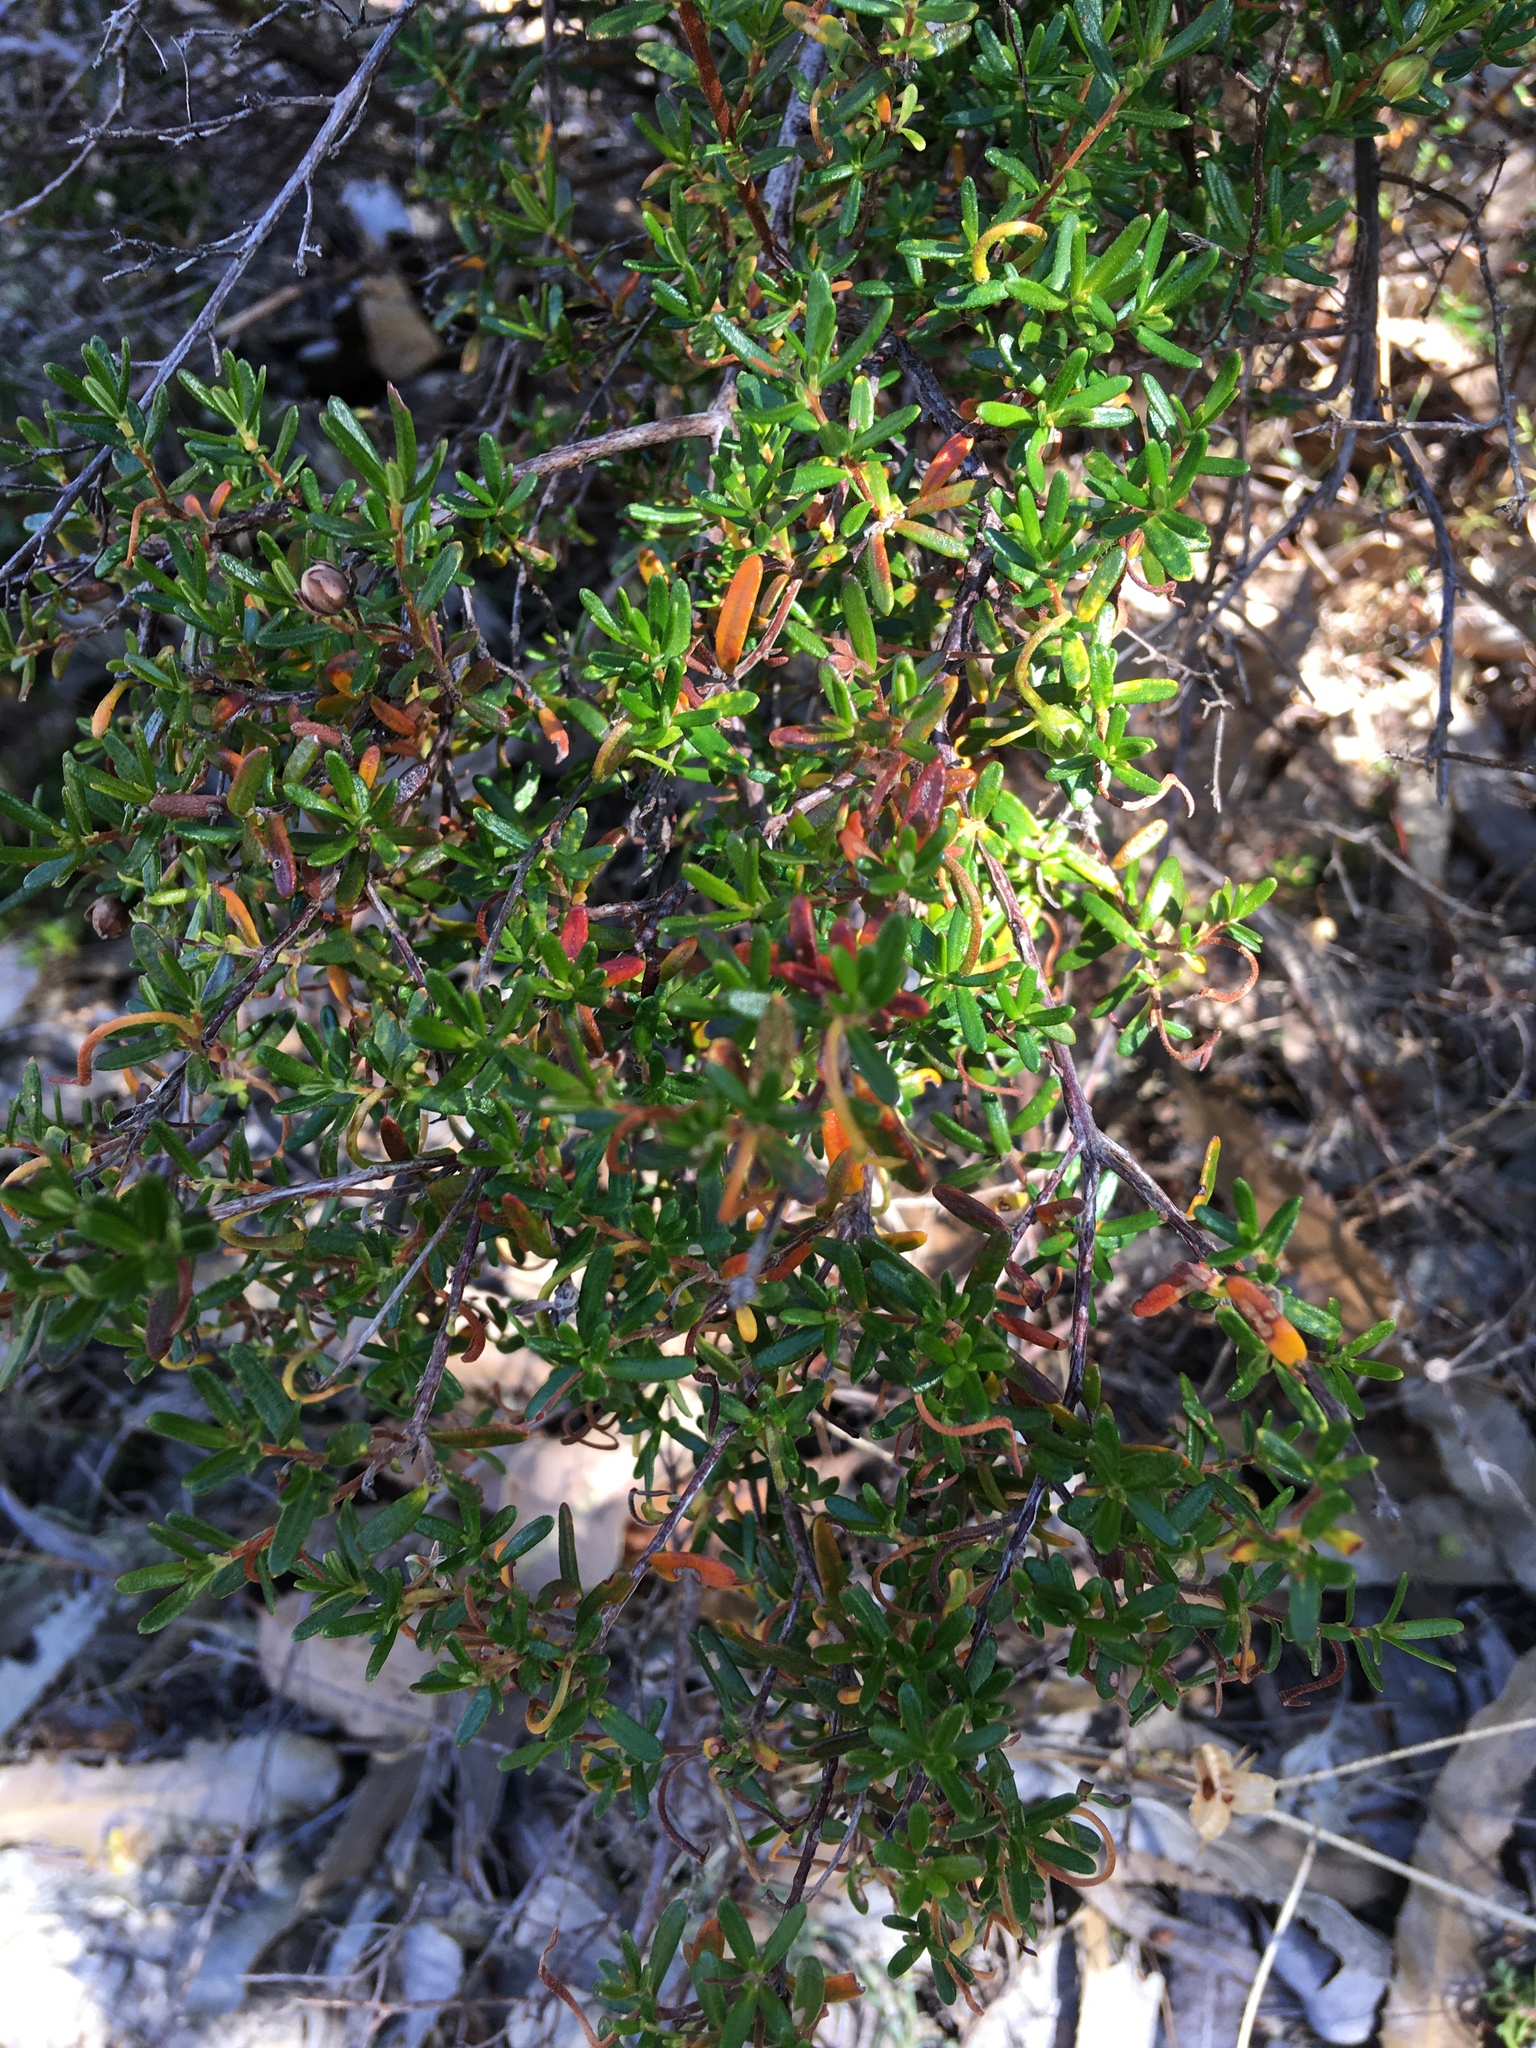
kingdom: Plantae
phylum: Tracheophyta
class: Magnoliopsida
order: Dilleniales
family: Dilleniaceae
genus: Hibbertia
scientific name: Hibbertia hypericoides
